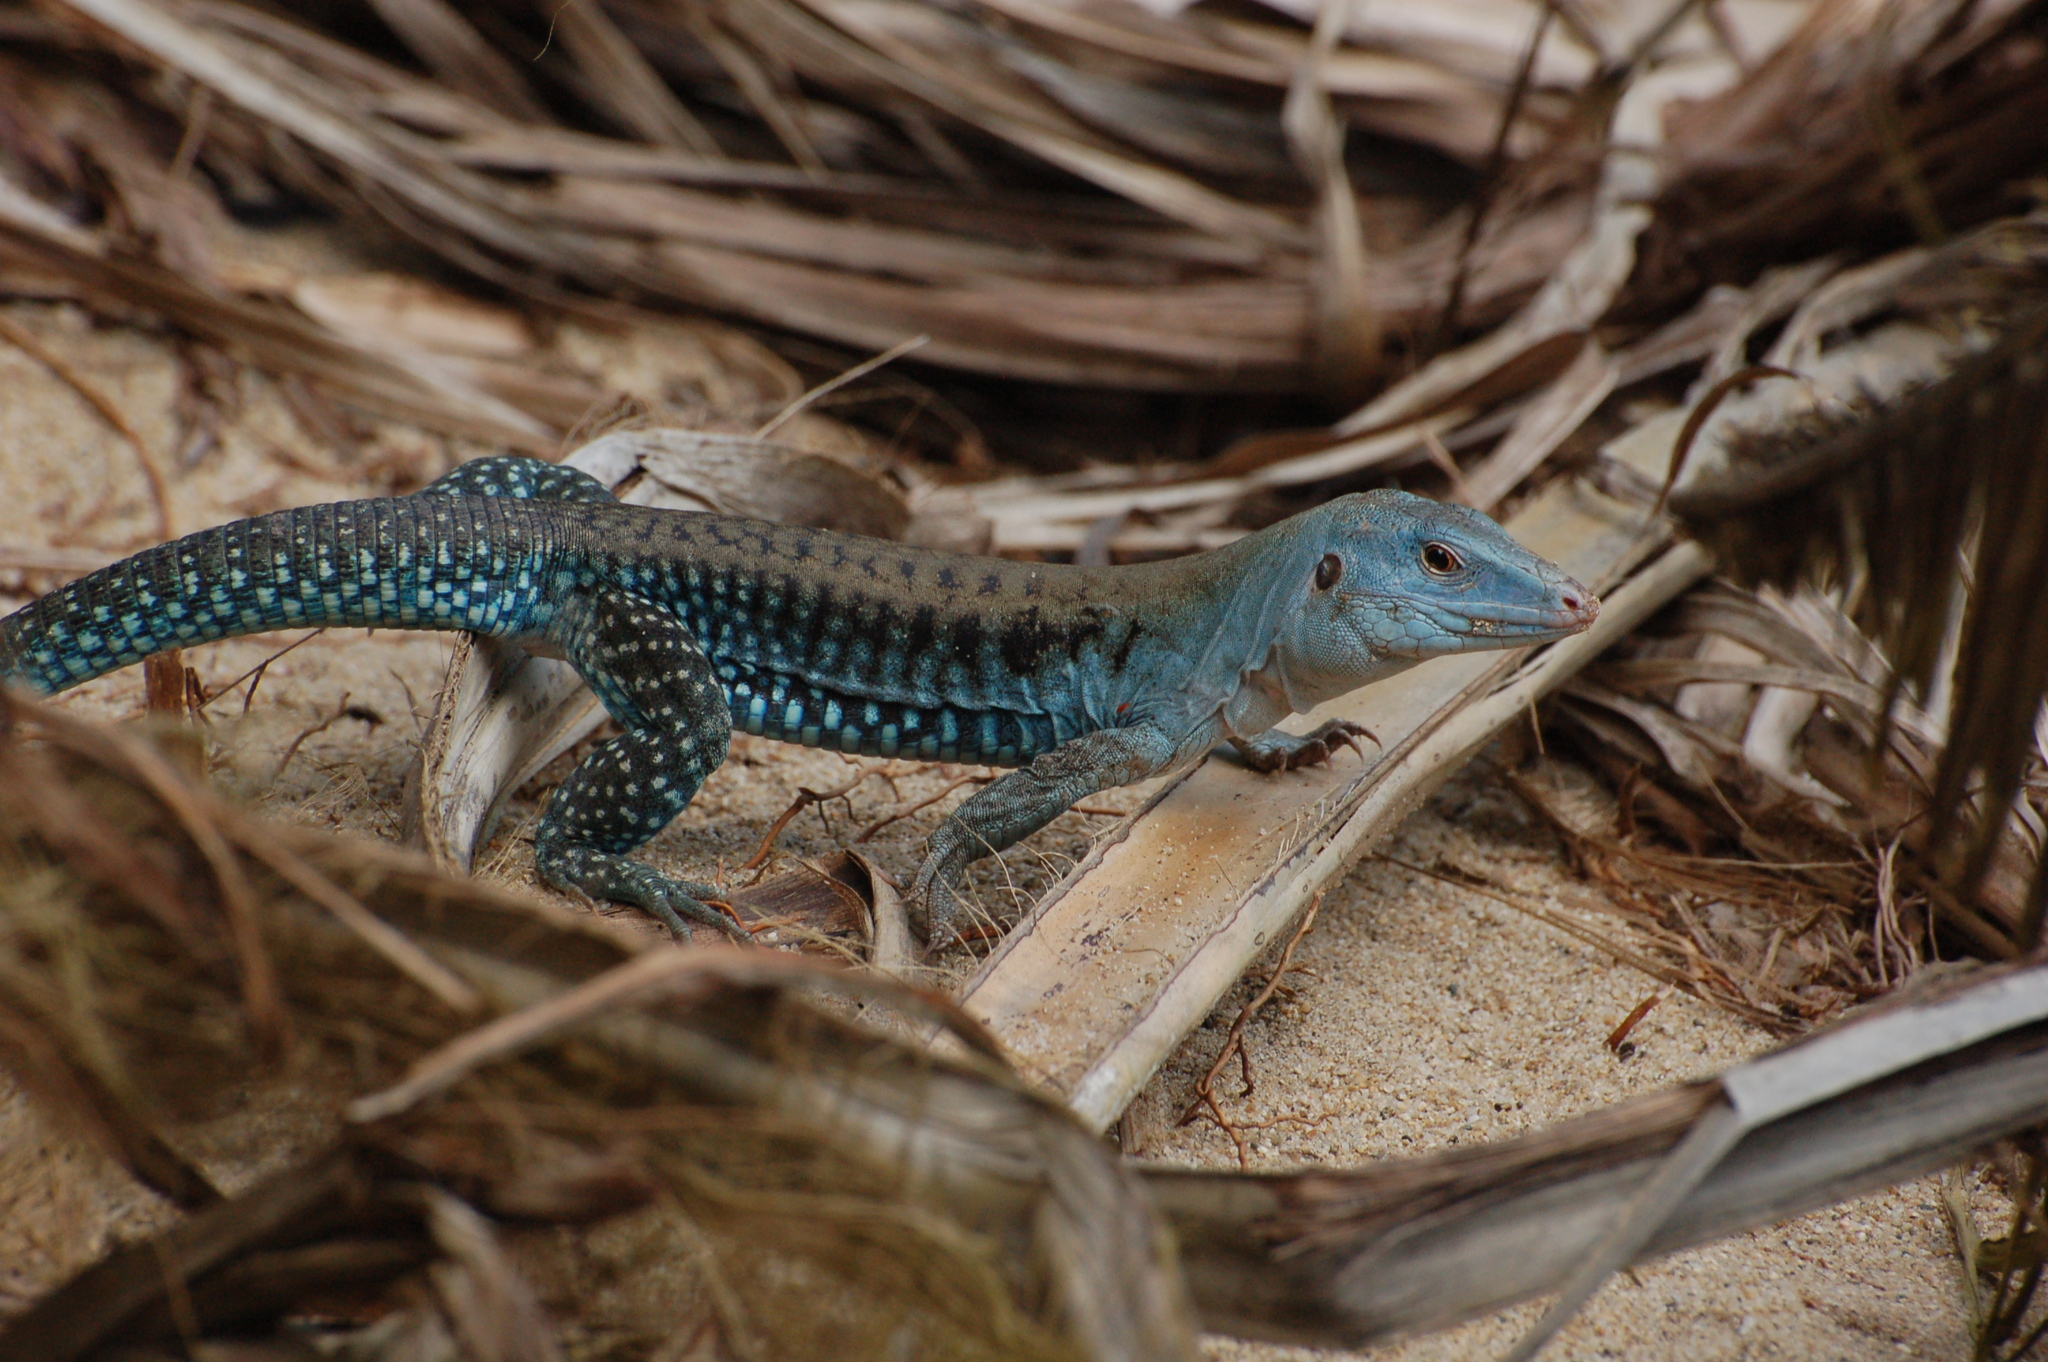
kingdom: Animalia
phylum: Chordata
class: Squamata
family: Teiidae
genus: Pholidoscelis
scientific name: Pholidoscelis exsul
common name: Common puerto rican ameiva
